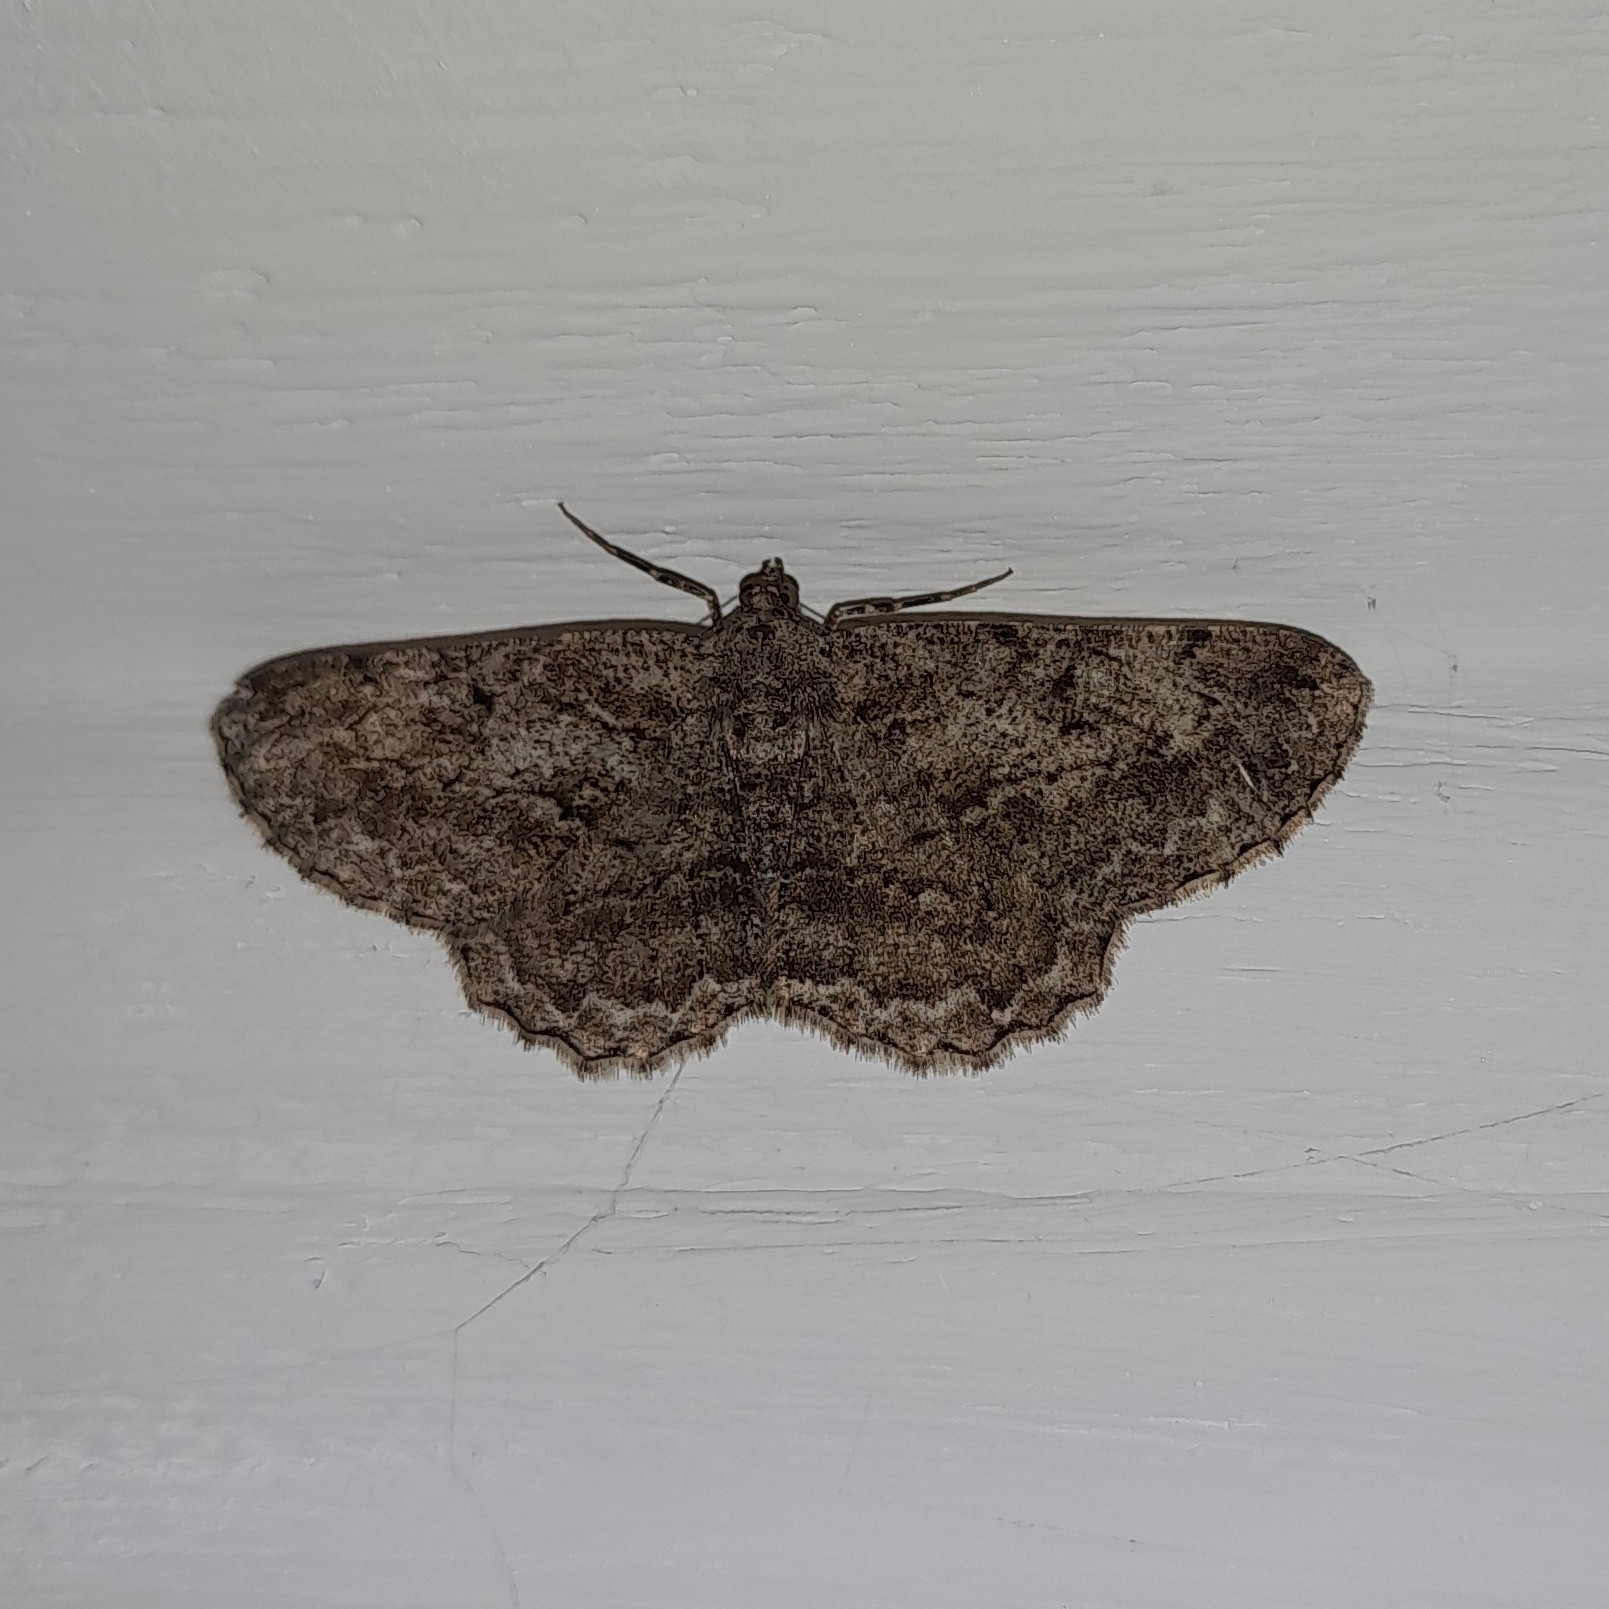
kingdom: Animalia
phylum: Arthropoda
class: Insecta
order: Lepidoptera
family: Geometridae
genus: Peribatodes
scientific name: Peribatodes rhomboidaria
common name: Willow beauty
